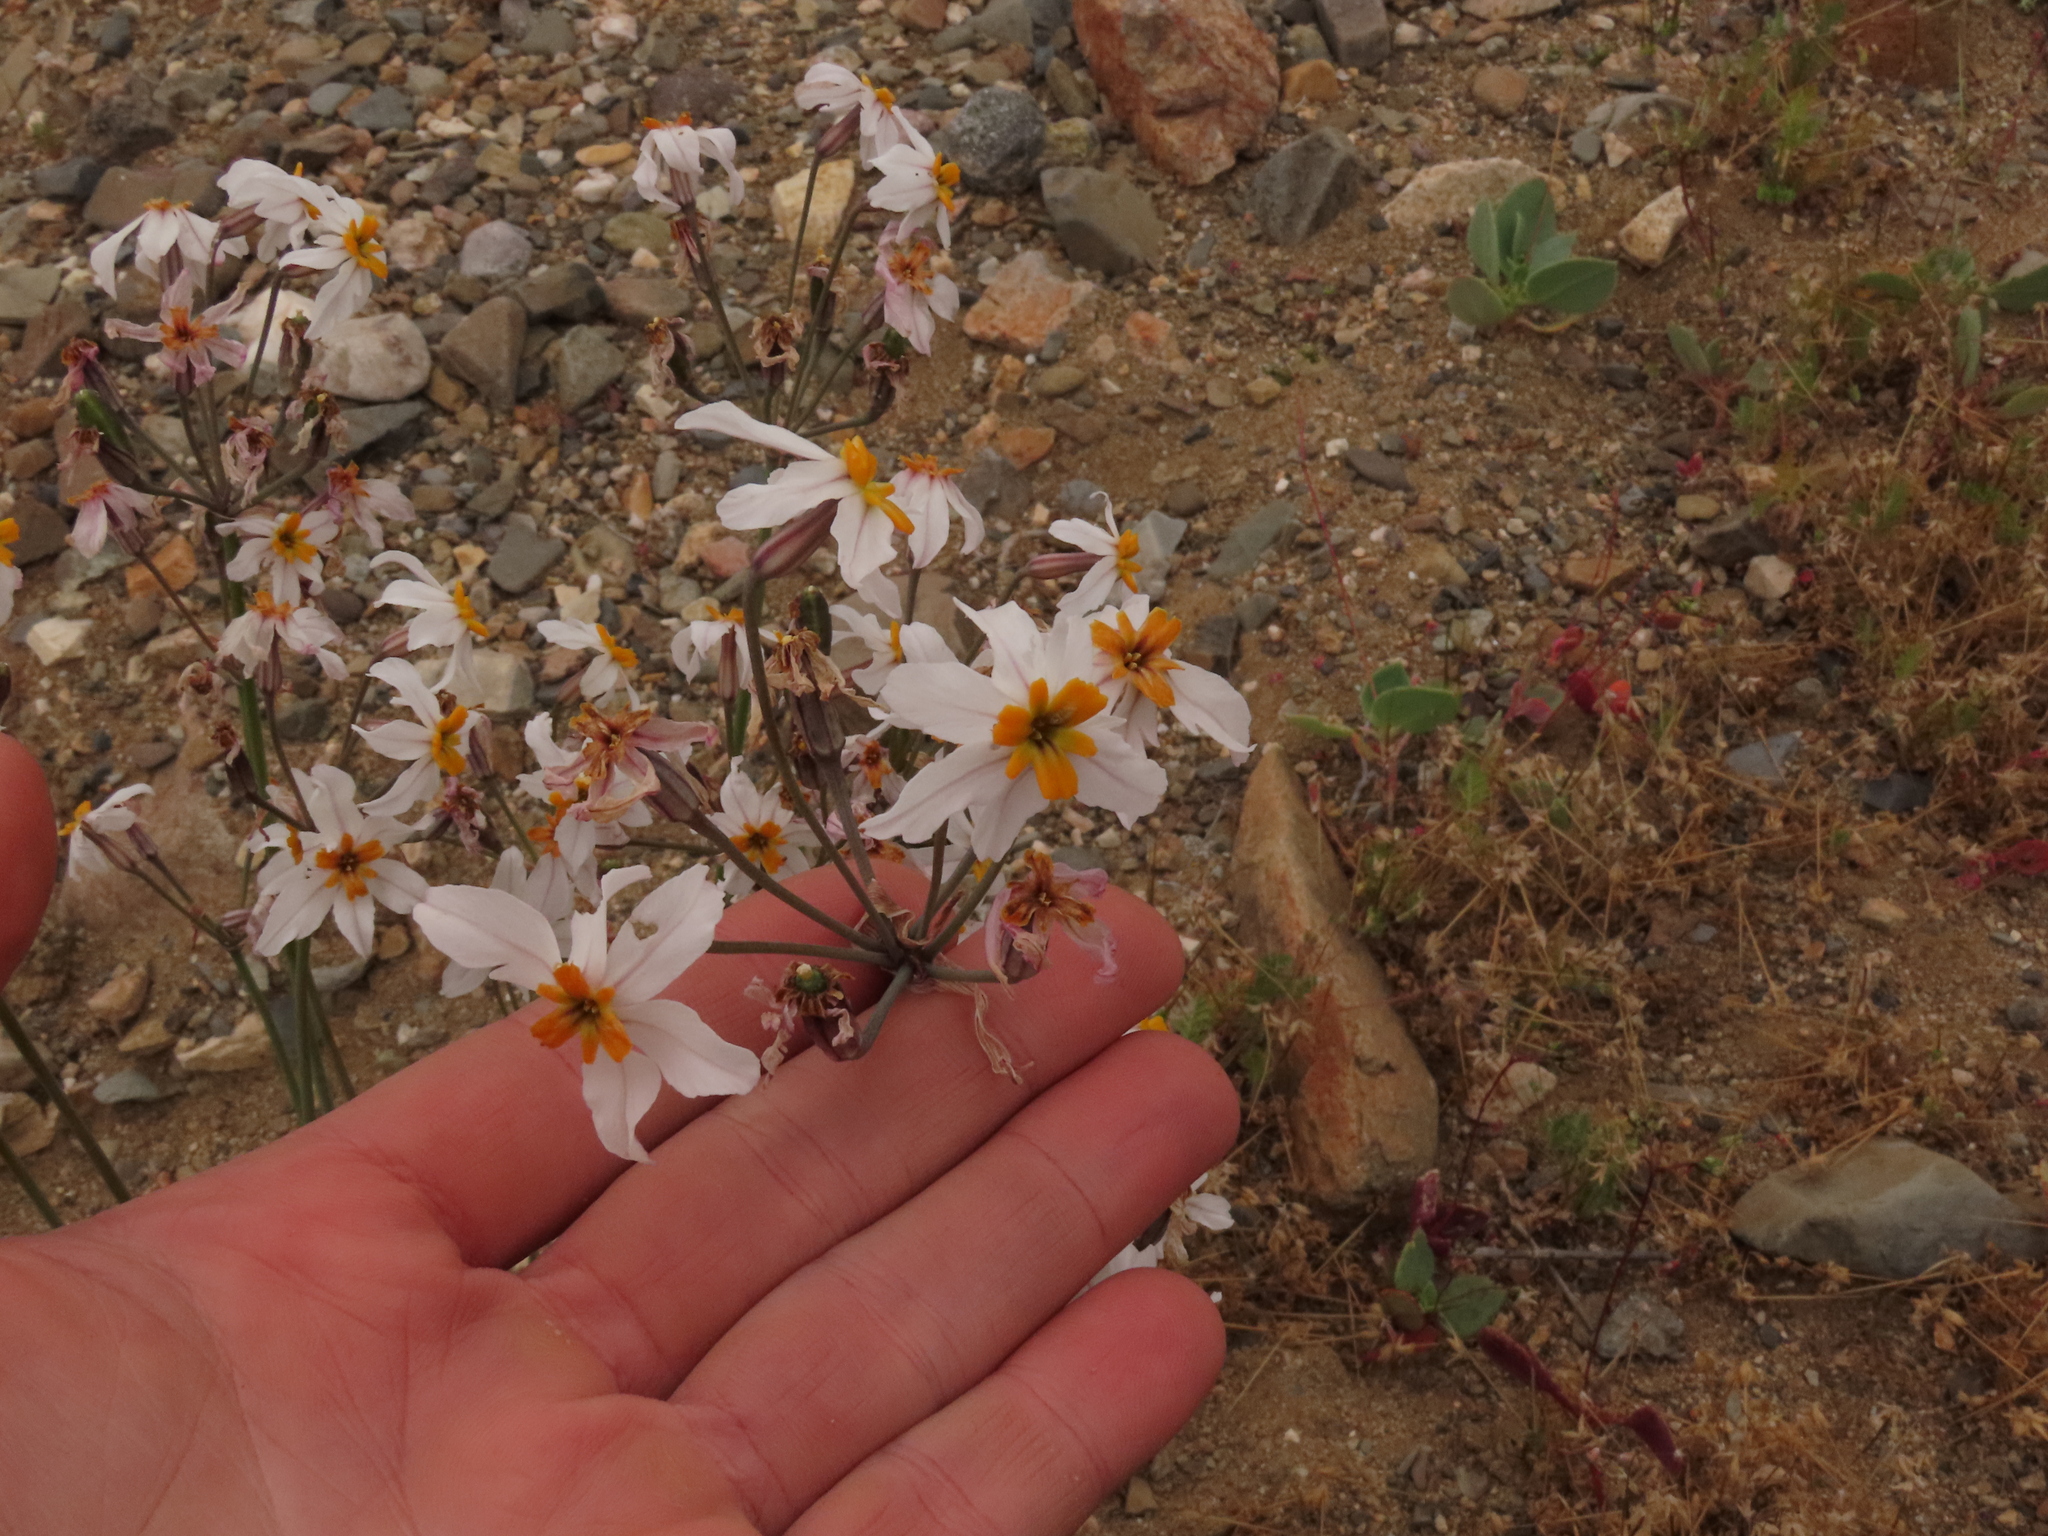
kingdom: Plantae
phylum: Tracheophyta
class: Liliopsida
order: Asparagales
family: Amaryllidaceae
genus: Leucocoryne
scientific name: Leucocoryne coronata
